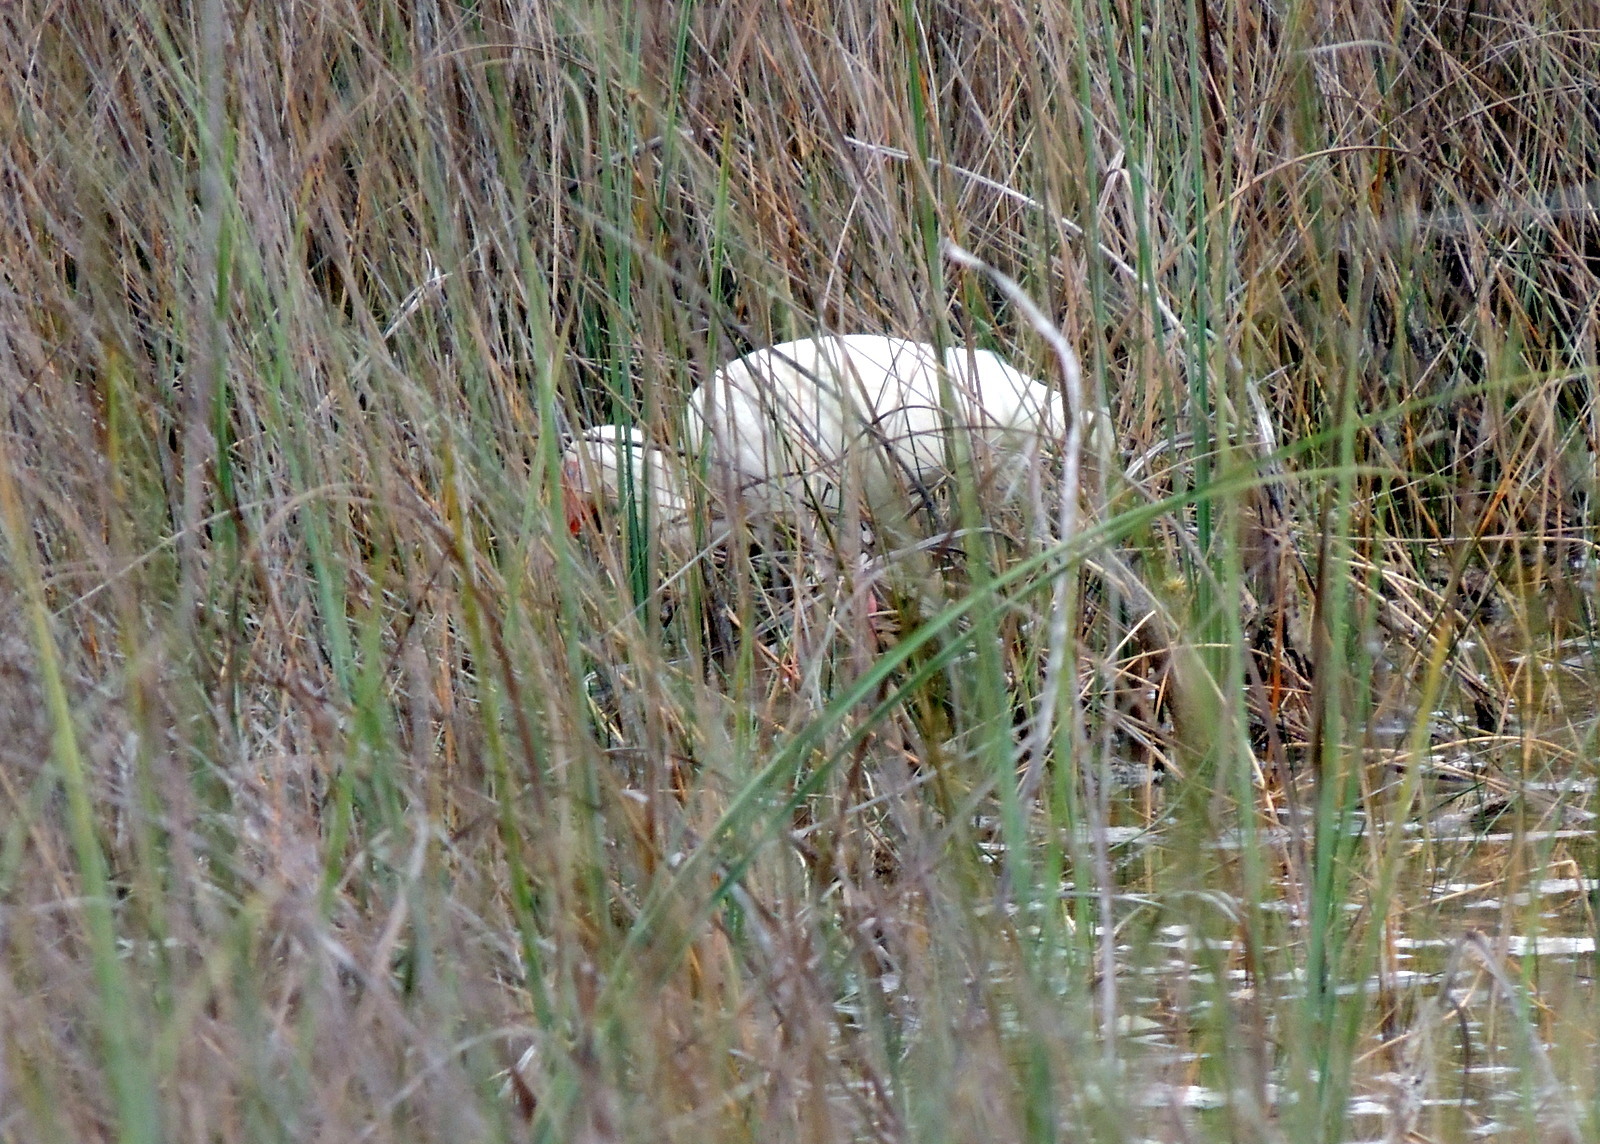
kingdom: Animalia
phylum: Chordata
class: Aves
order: Pelecaniformes
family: Threskiornithidae
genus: Eudocimus
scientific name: Eudocimus albus
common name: White ibis
